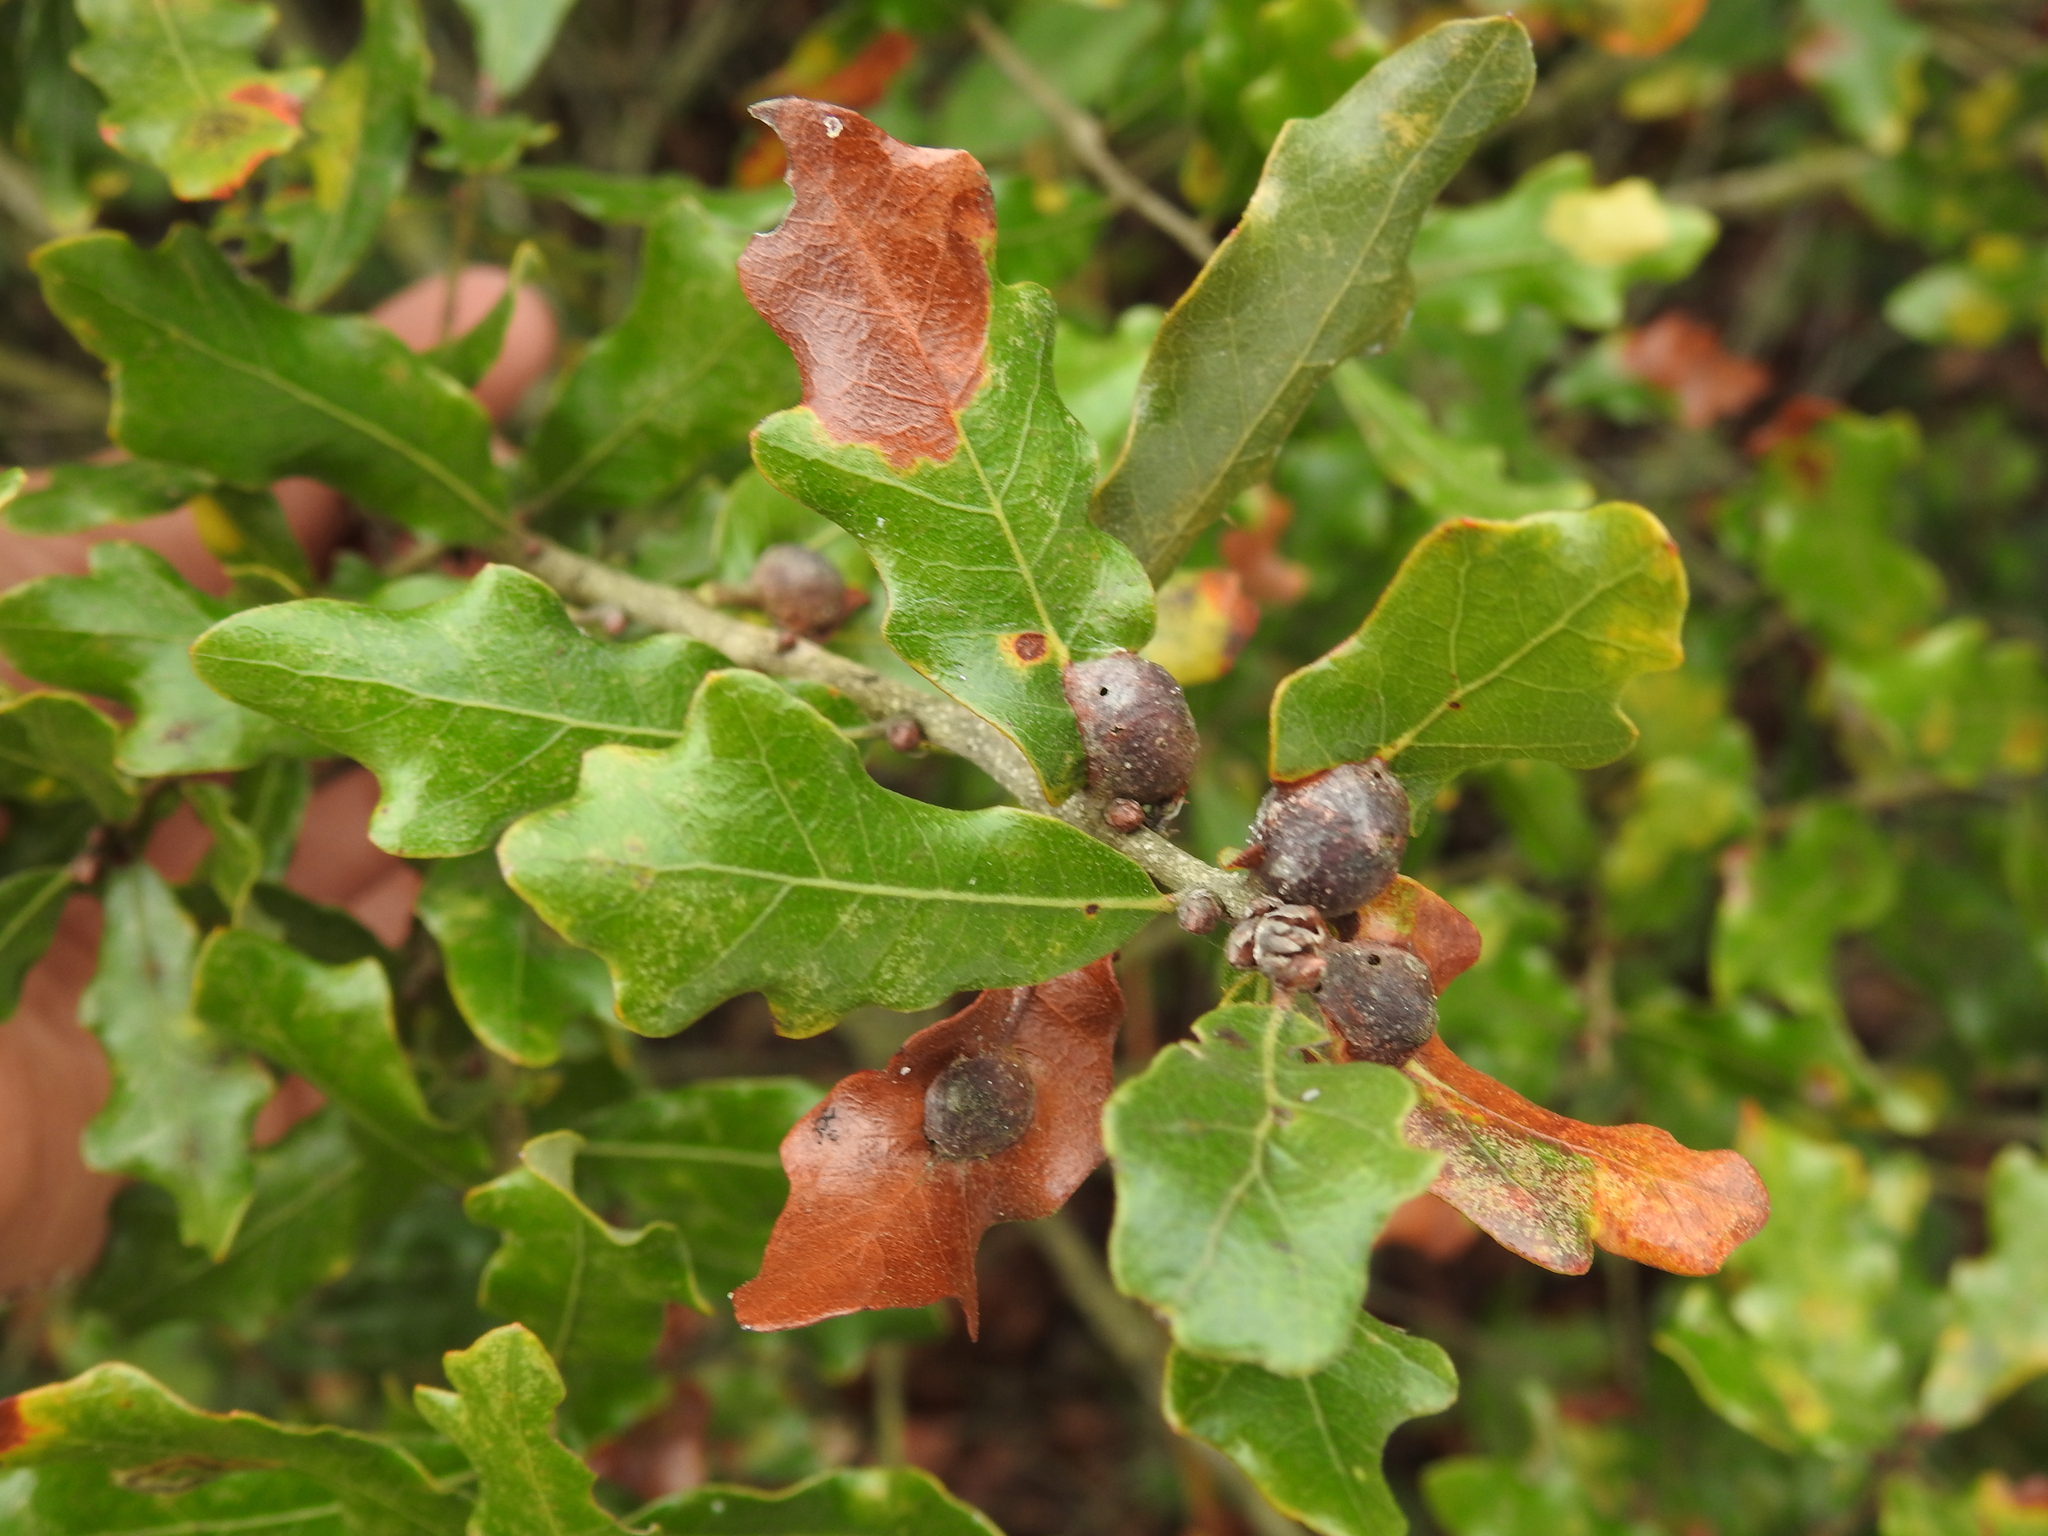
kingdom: Animalia
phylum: Arthropoda
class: Insecta
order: Hymenoptera
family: Cynipidae
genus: Andricus
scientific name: Andricus
